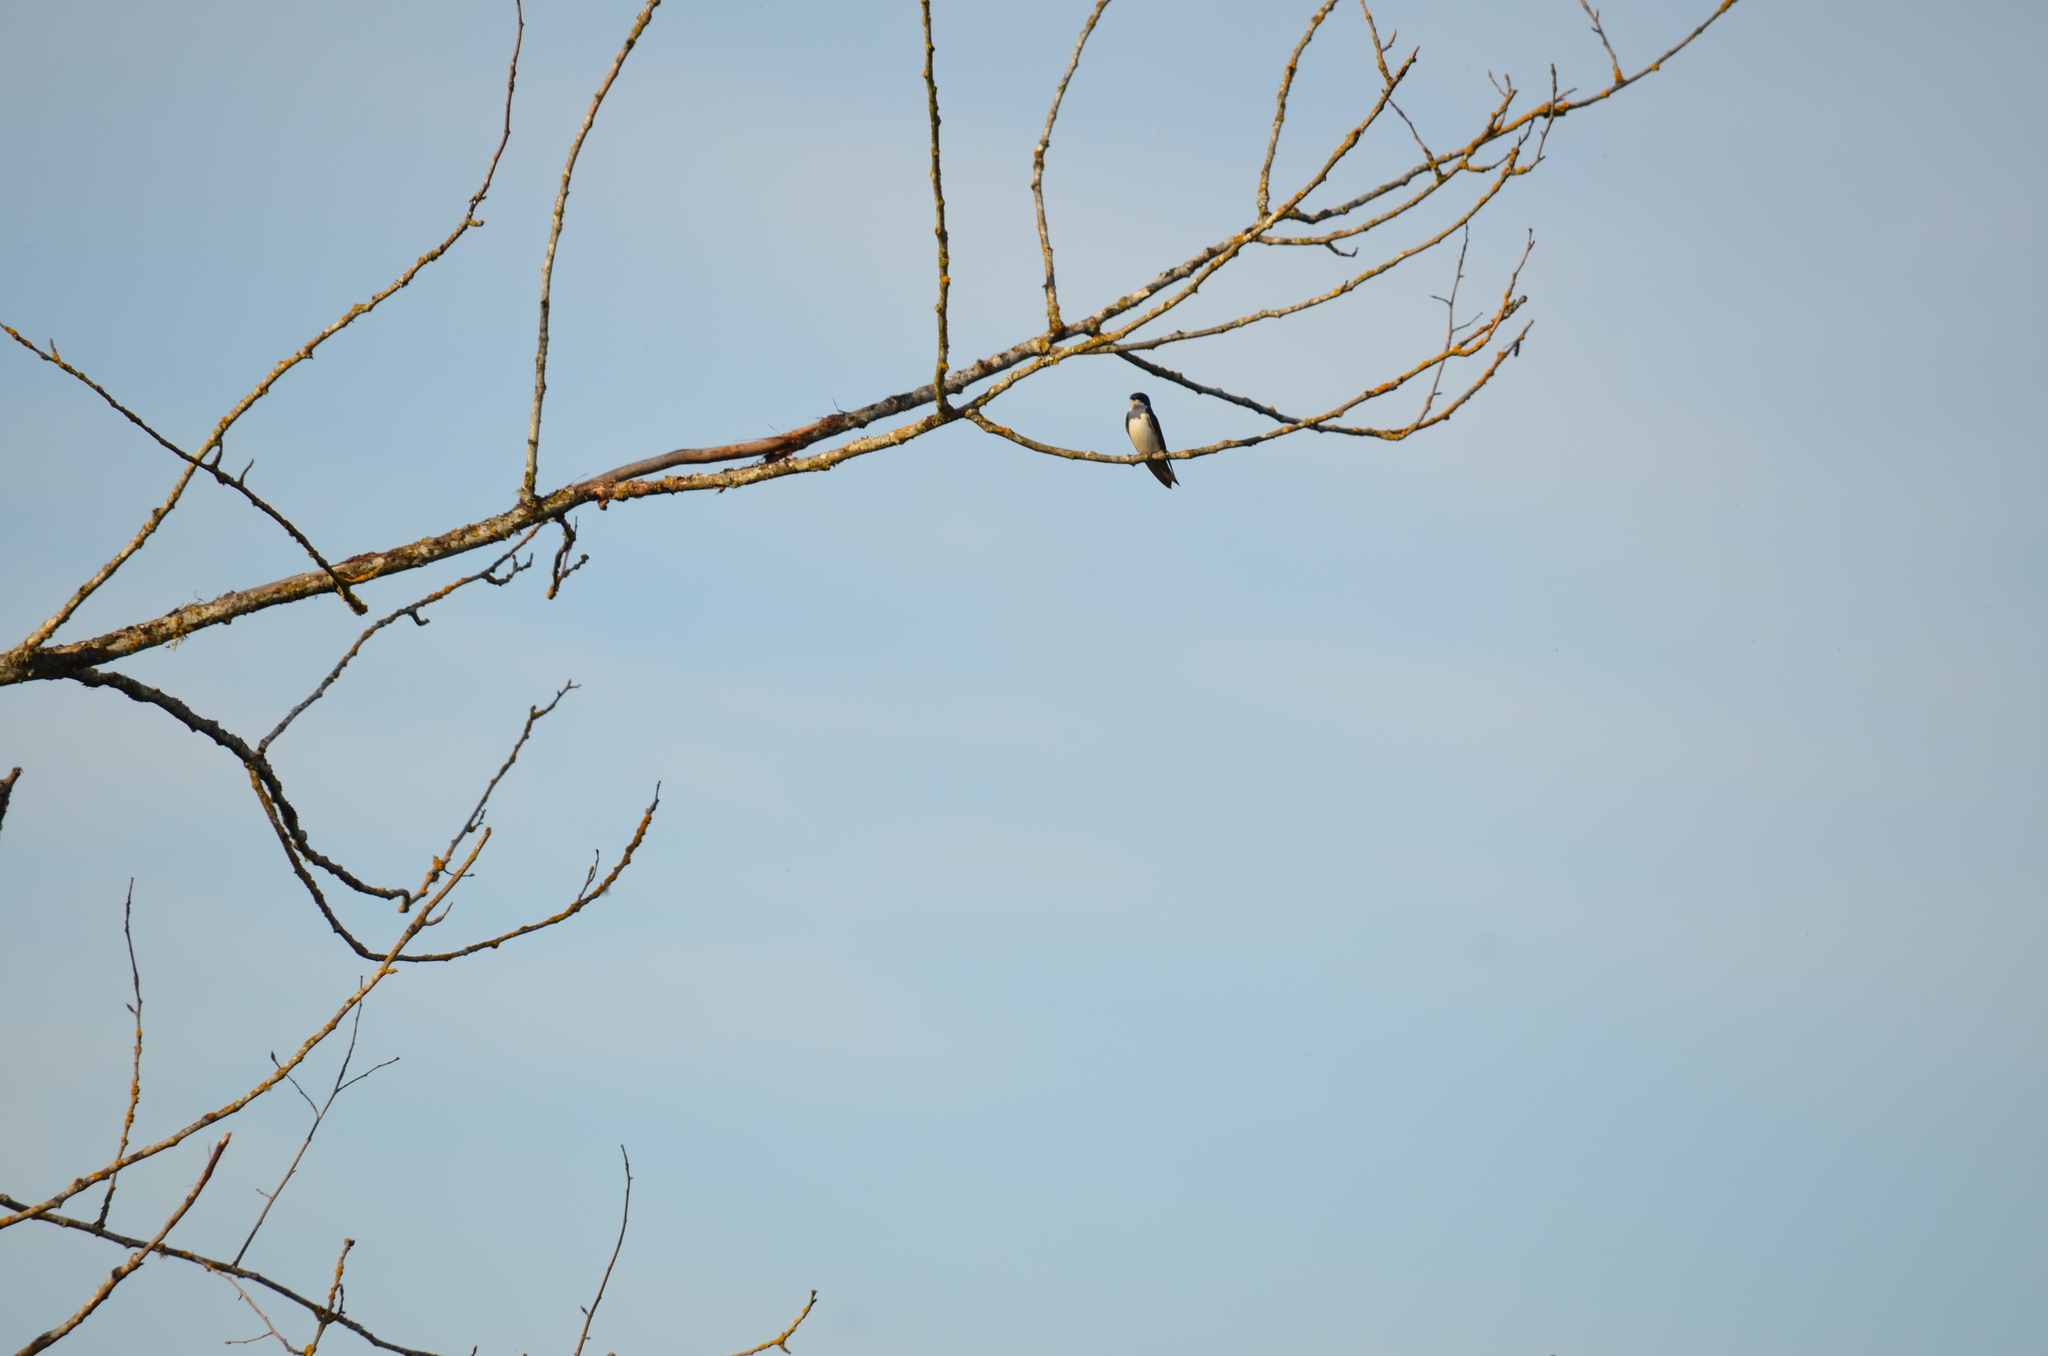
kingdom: Animalia
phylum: Chordata
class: Aves
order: Passeriformes
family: Hirundinidae
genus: Tachycineta
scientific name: Tachycineta bicolor
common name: Tree swallow
